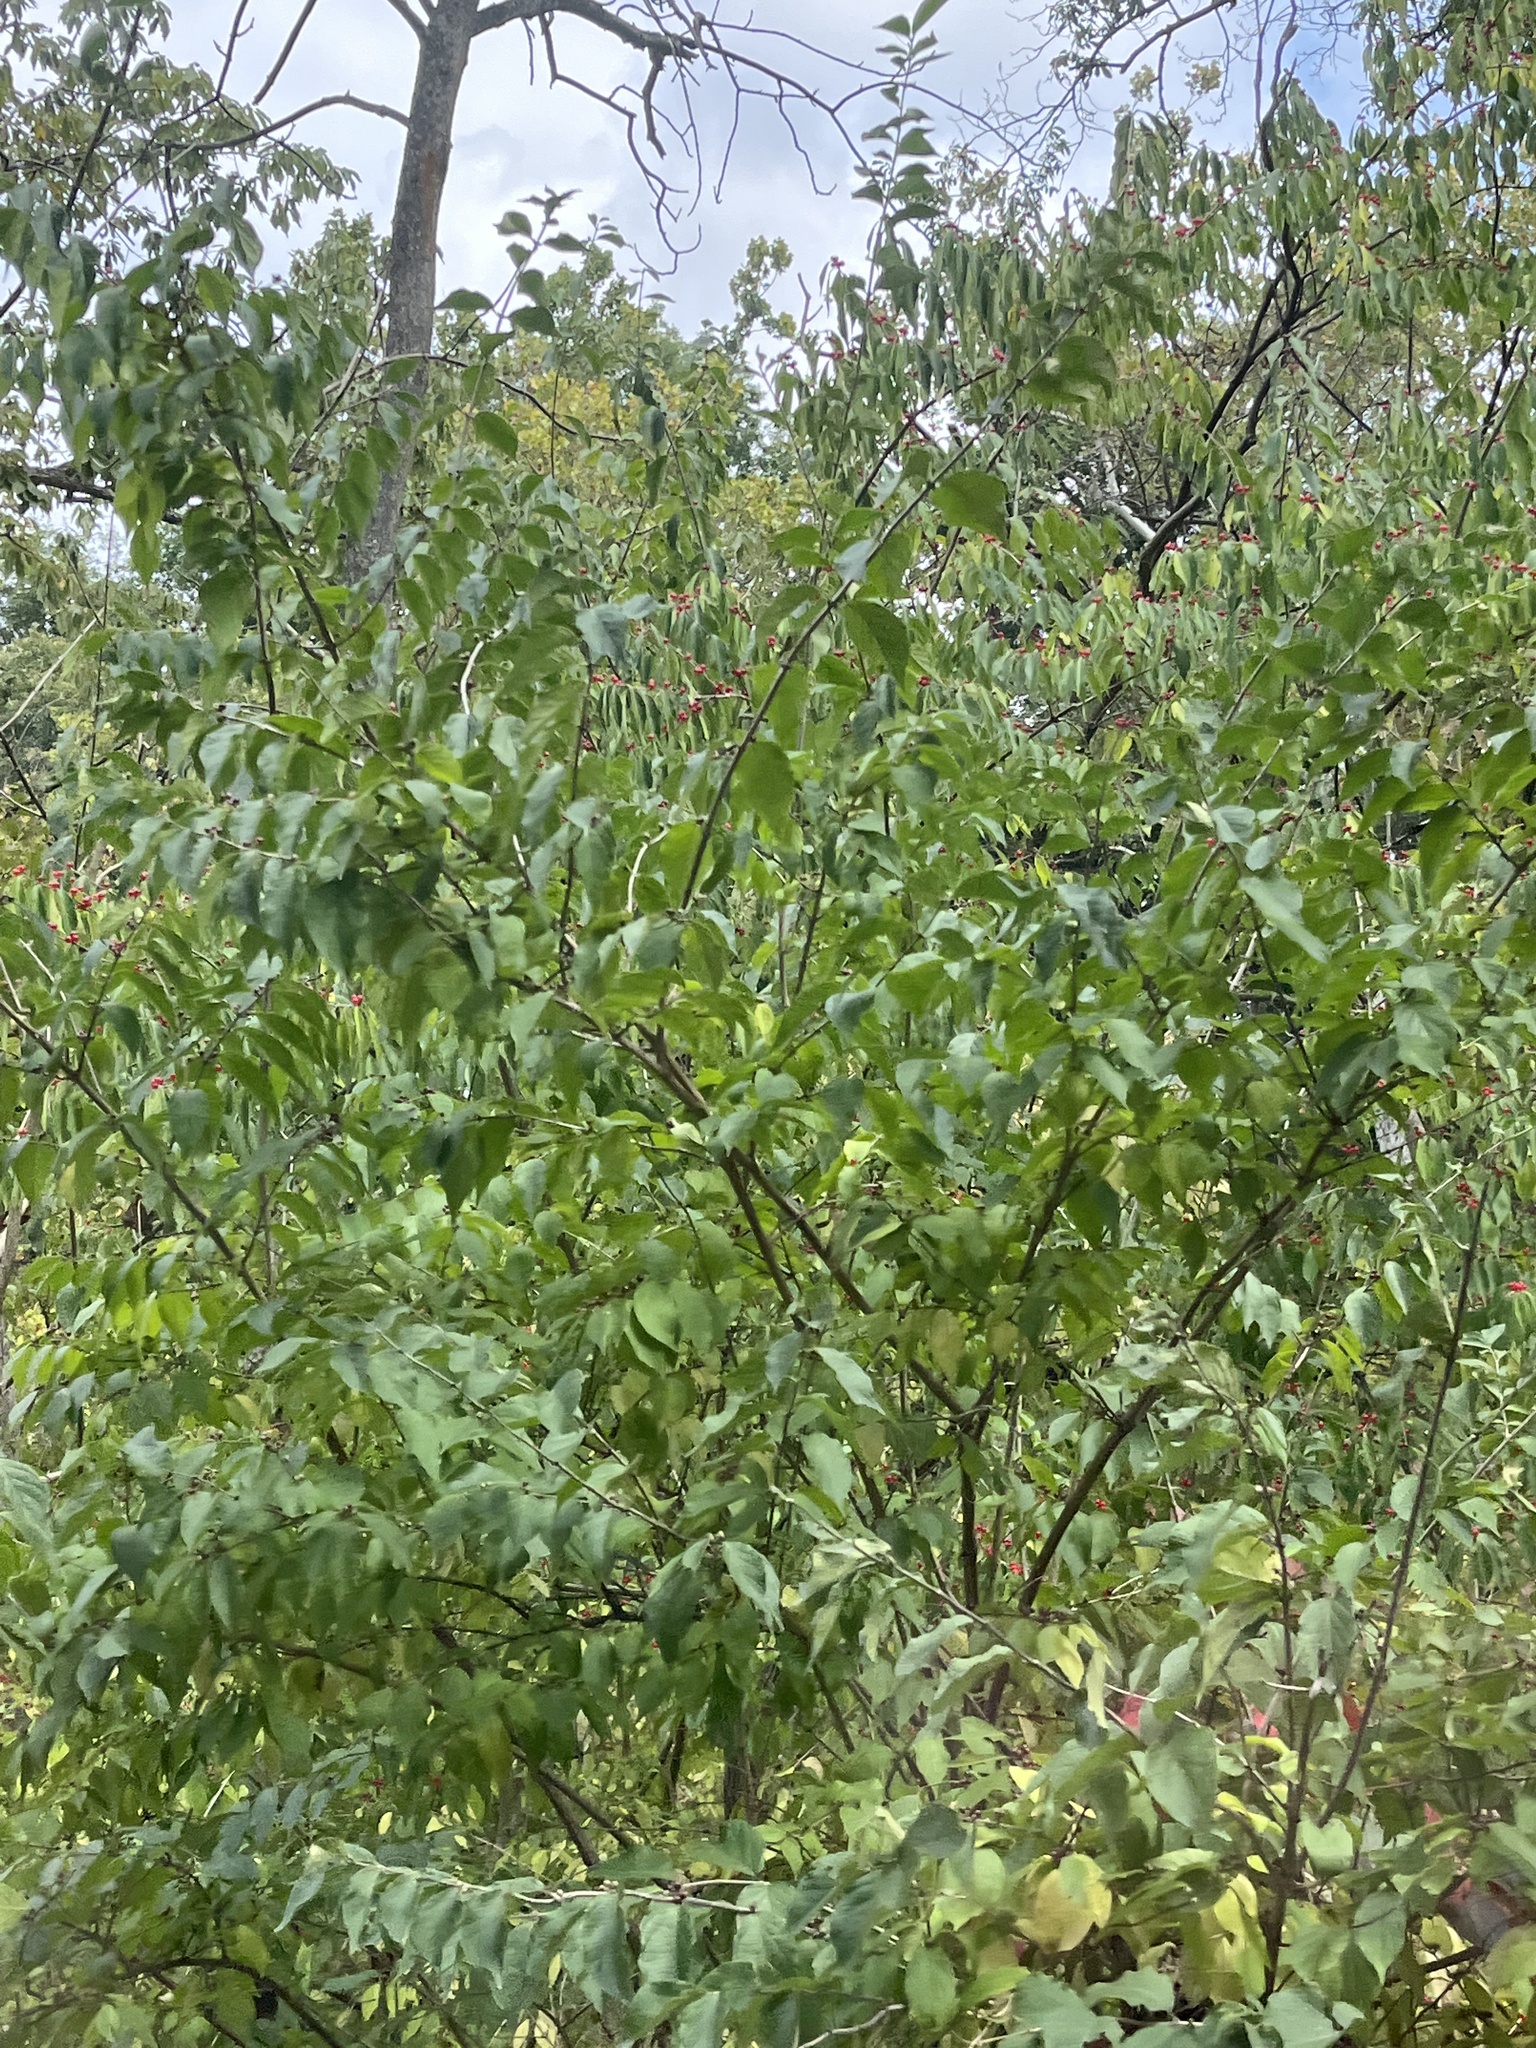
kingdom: Plantae
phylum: Tracheophyta
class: Magnoliopsida
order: Dipsacales
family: Caprifoliaceae
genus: Lonicera
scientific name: Lonicera maackii
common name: Amur honeysuckle
